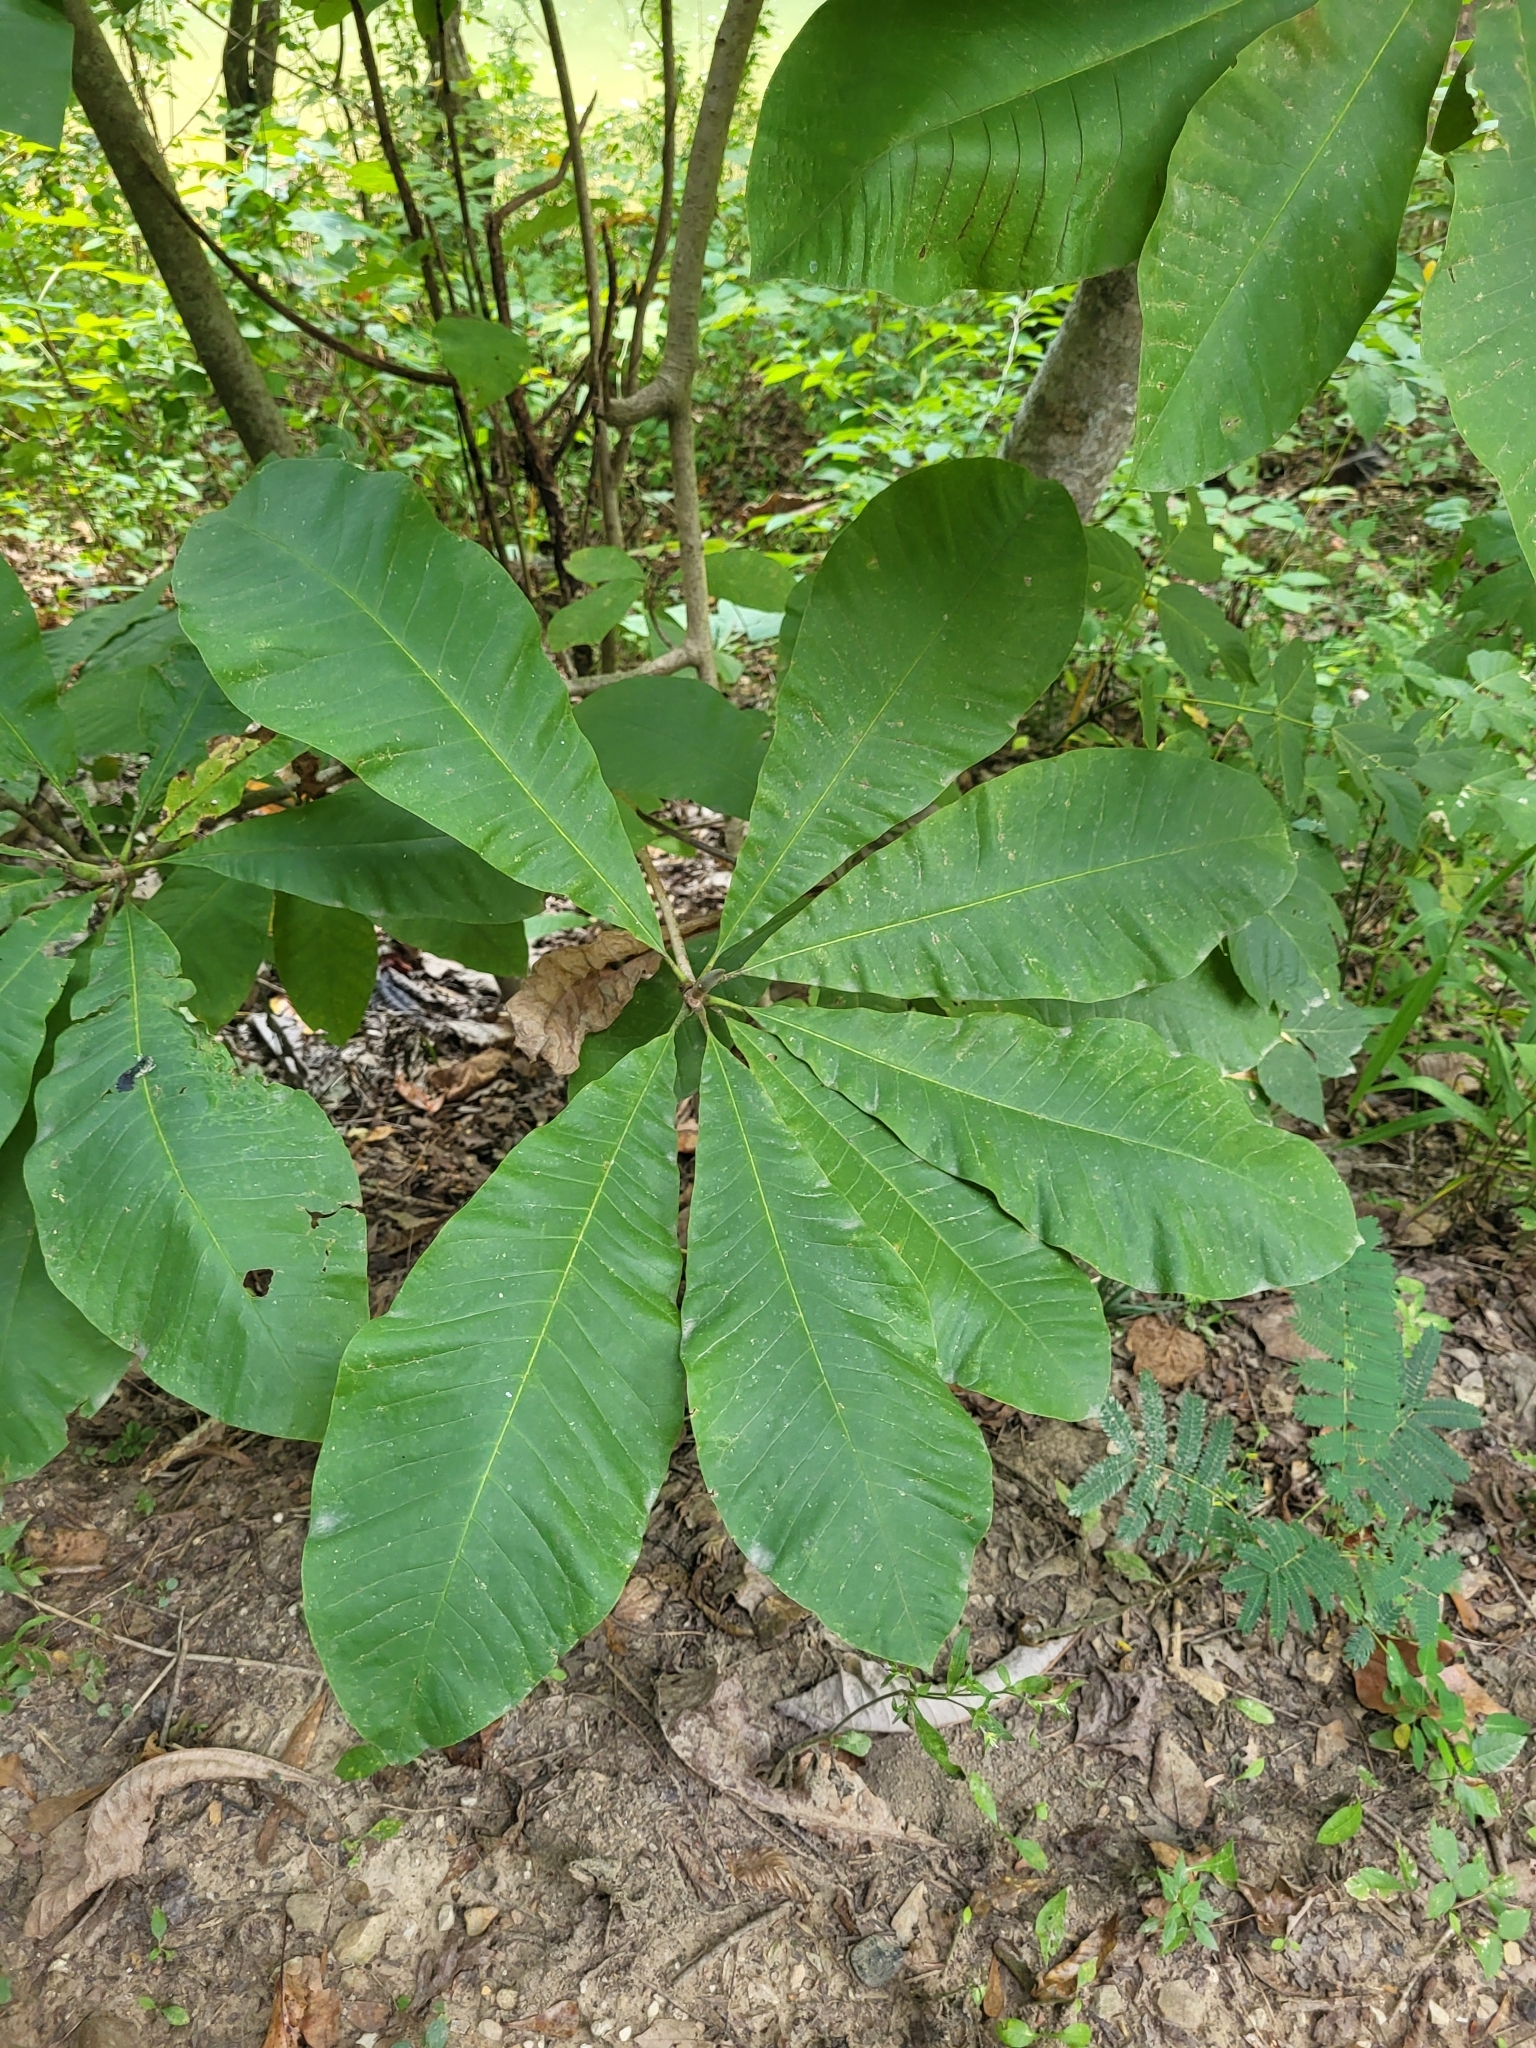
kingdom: Plantae
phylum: Tracheophyta
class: Magnoliopsida
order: Magnoliales
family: Magnoliaceae
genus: Magnolia
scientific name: Magnolia tripetala
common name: Umbrella magnolia
